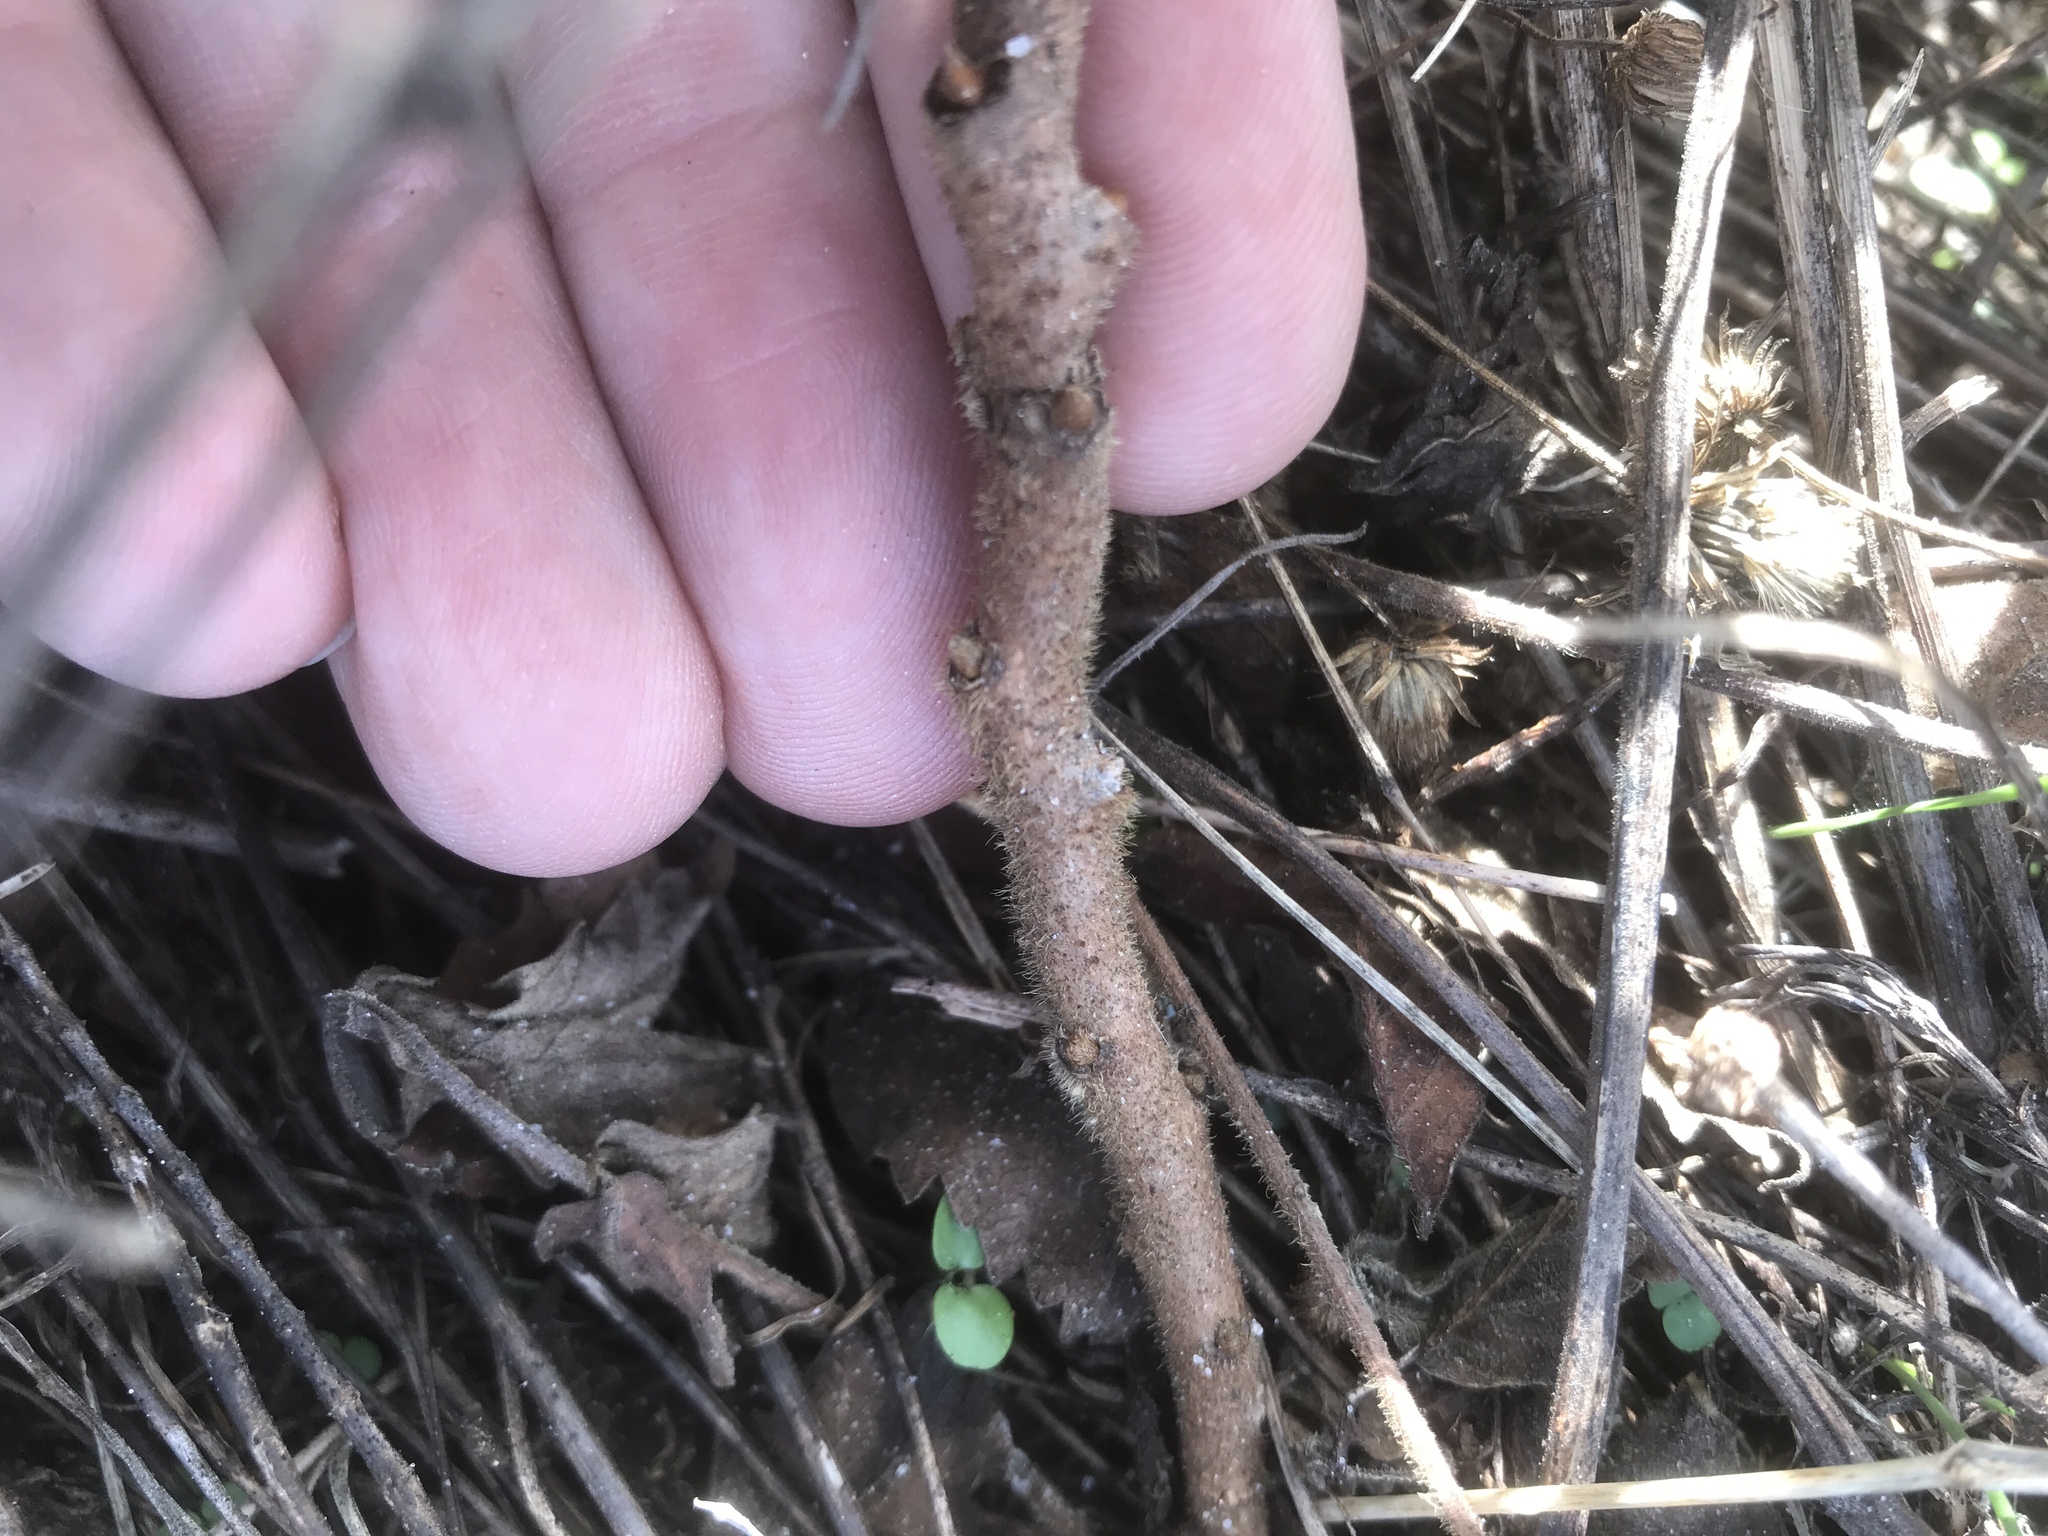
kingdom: Plantae
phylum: Tracheophyta
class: Magnoliopsida
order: Sapindales
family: Anacardiaceae
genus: Rhus
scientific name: Rhus michauxii
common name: Michaux's sumac
